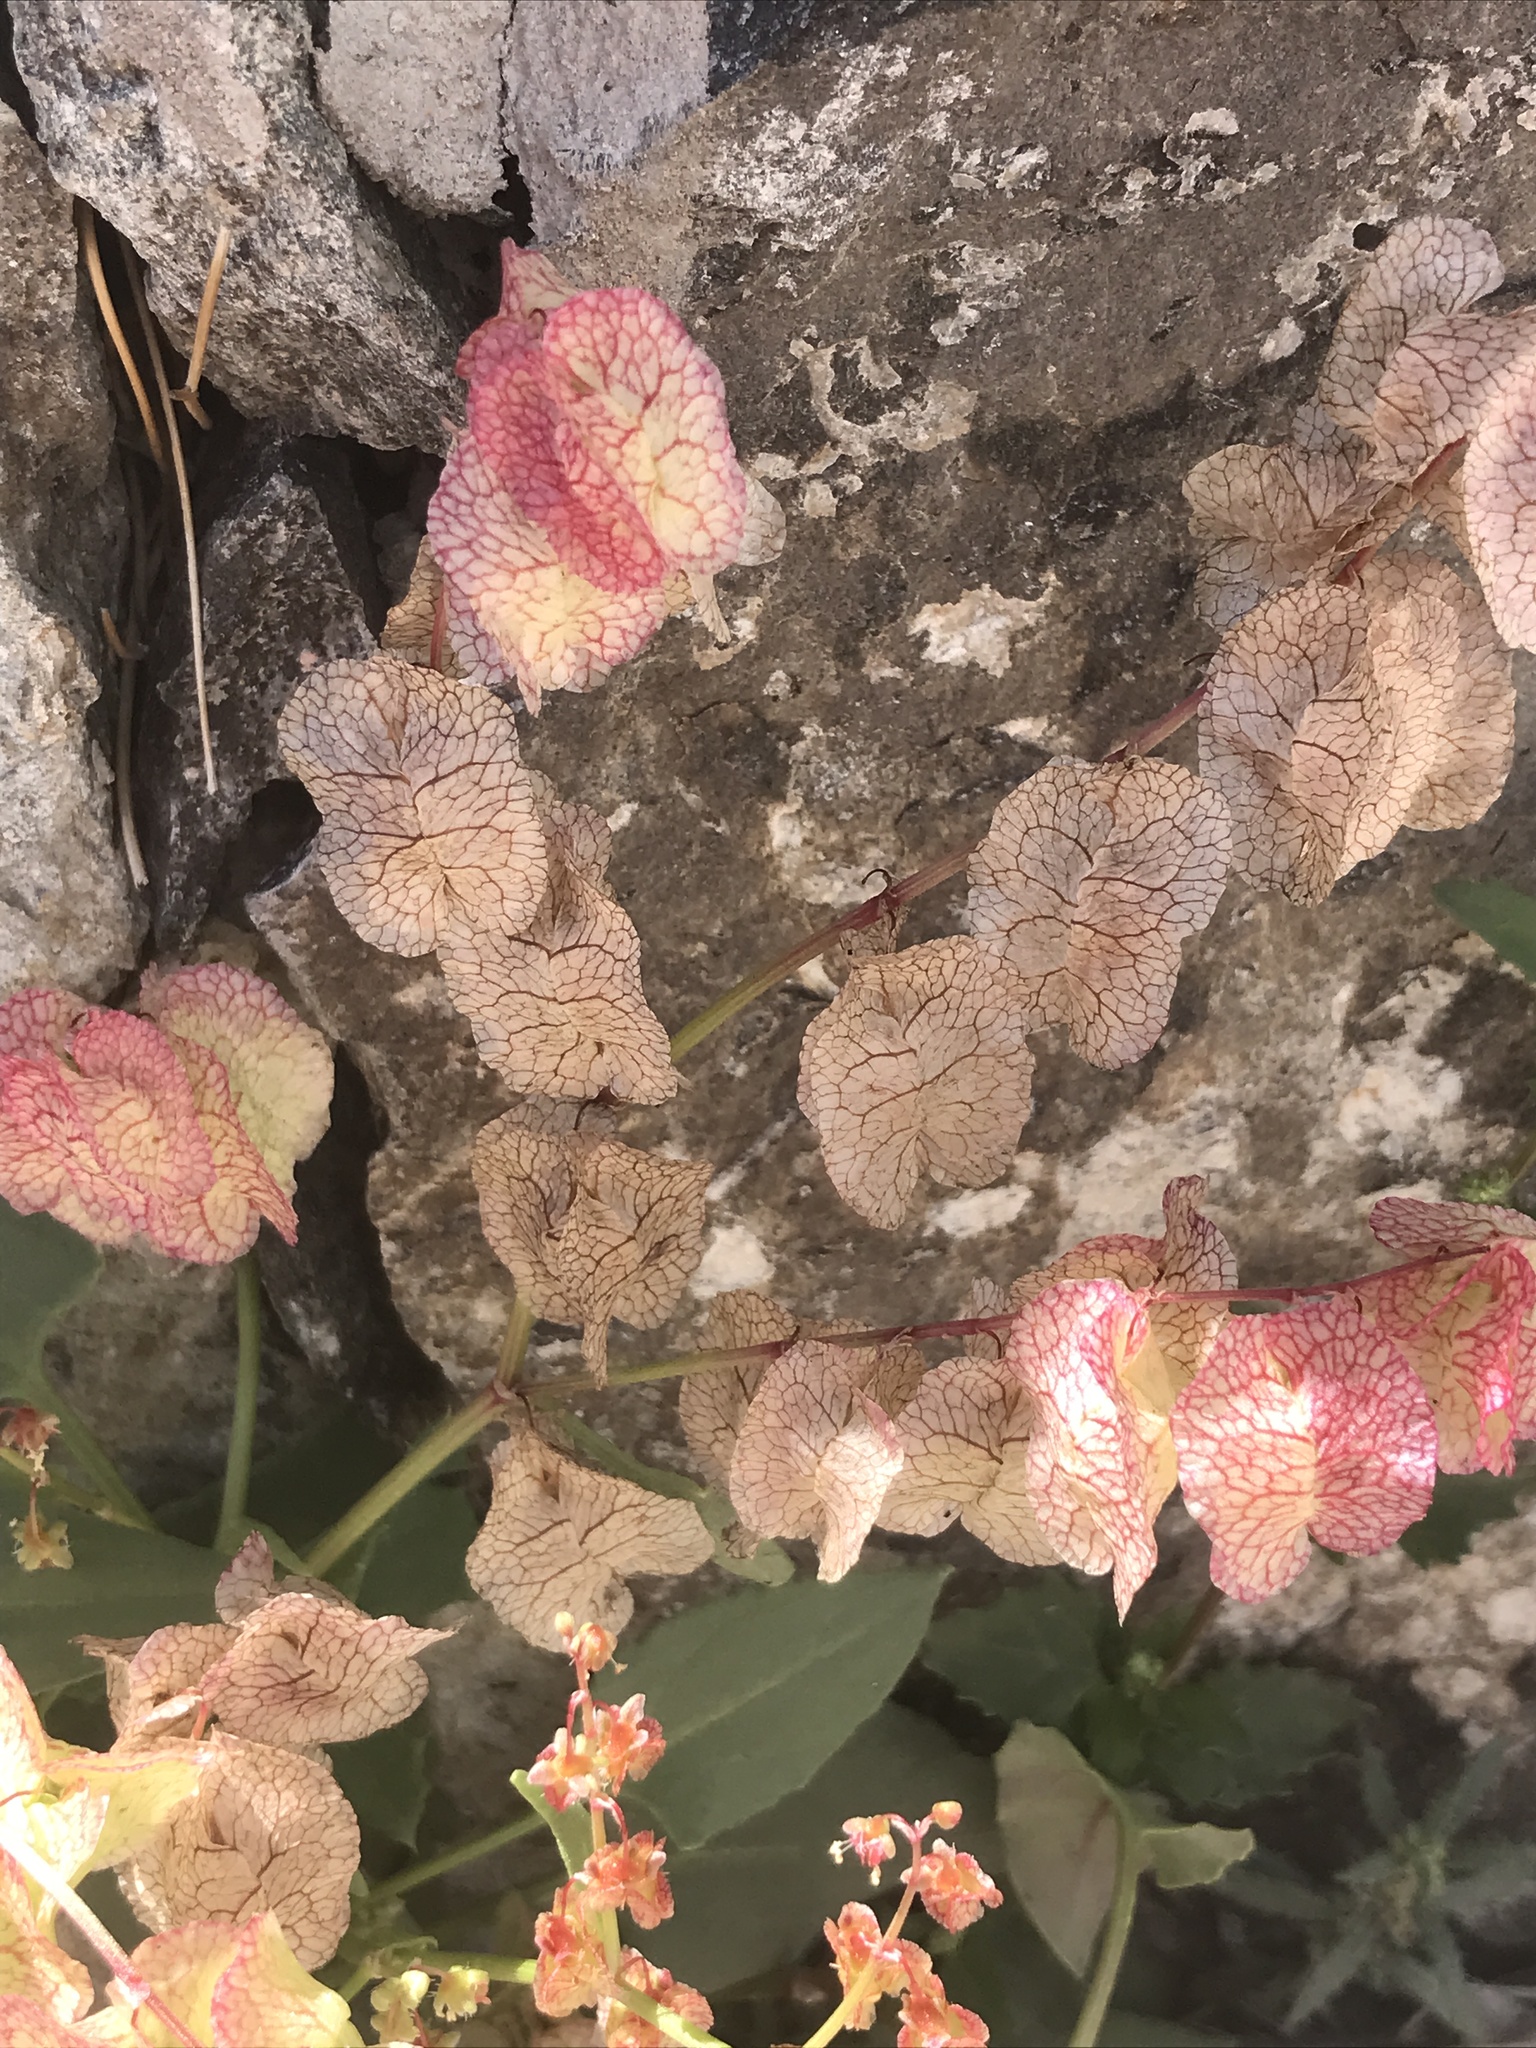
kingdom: Plantae
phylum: Tracheophyta
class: Magnoliopsida
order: Caryophyllales
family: Polygonaceae
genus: Rumex
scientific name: Rumex vesicarius
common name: Bladder dock
